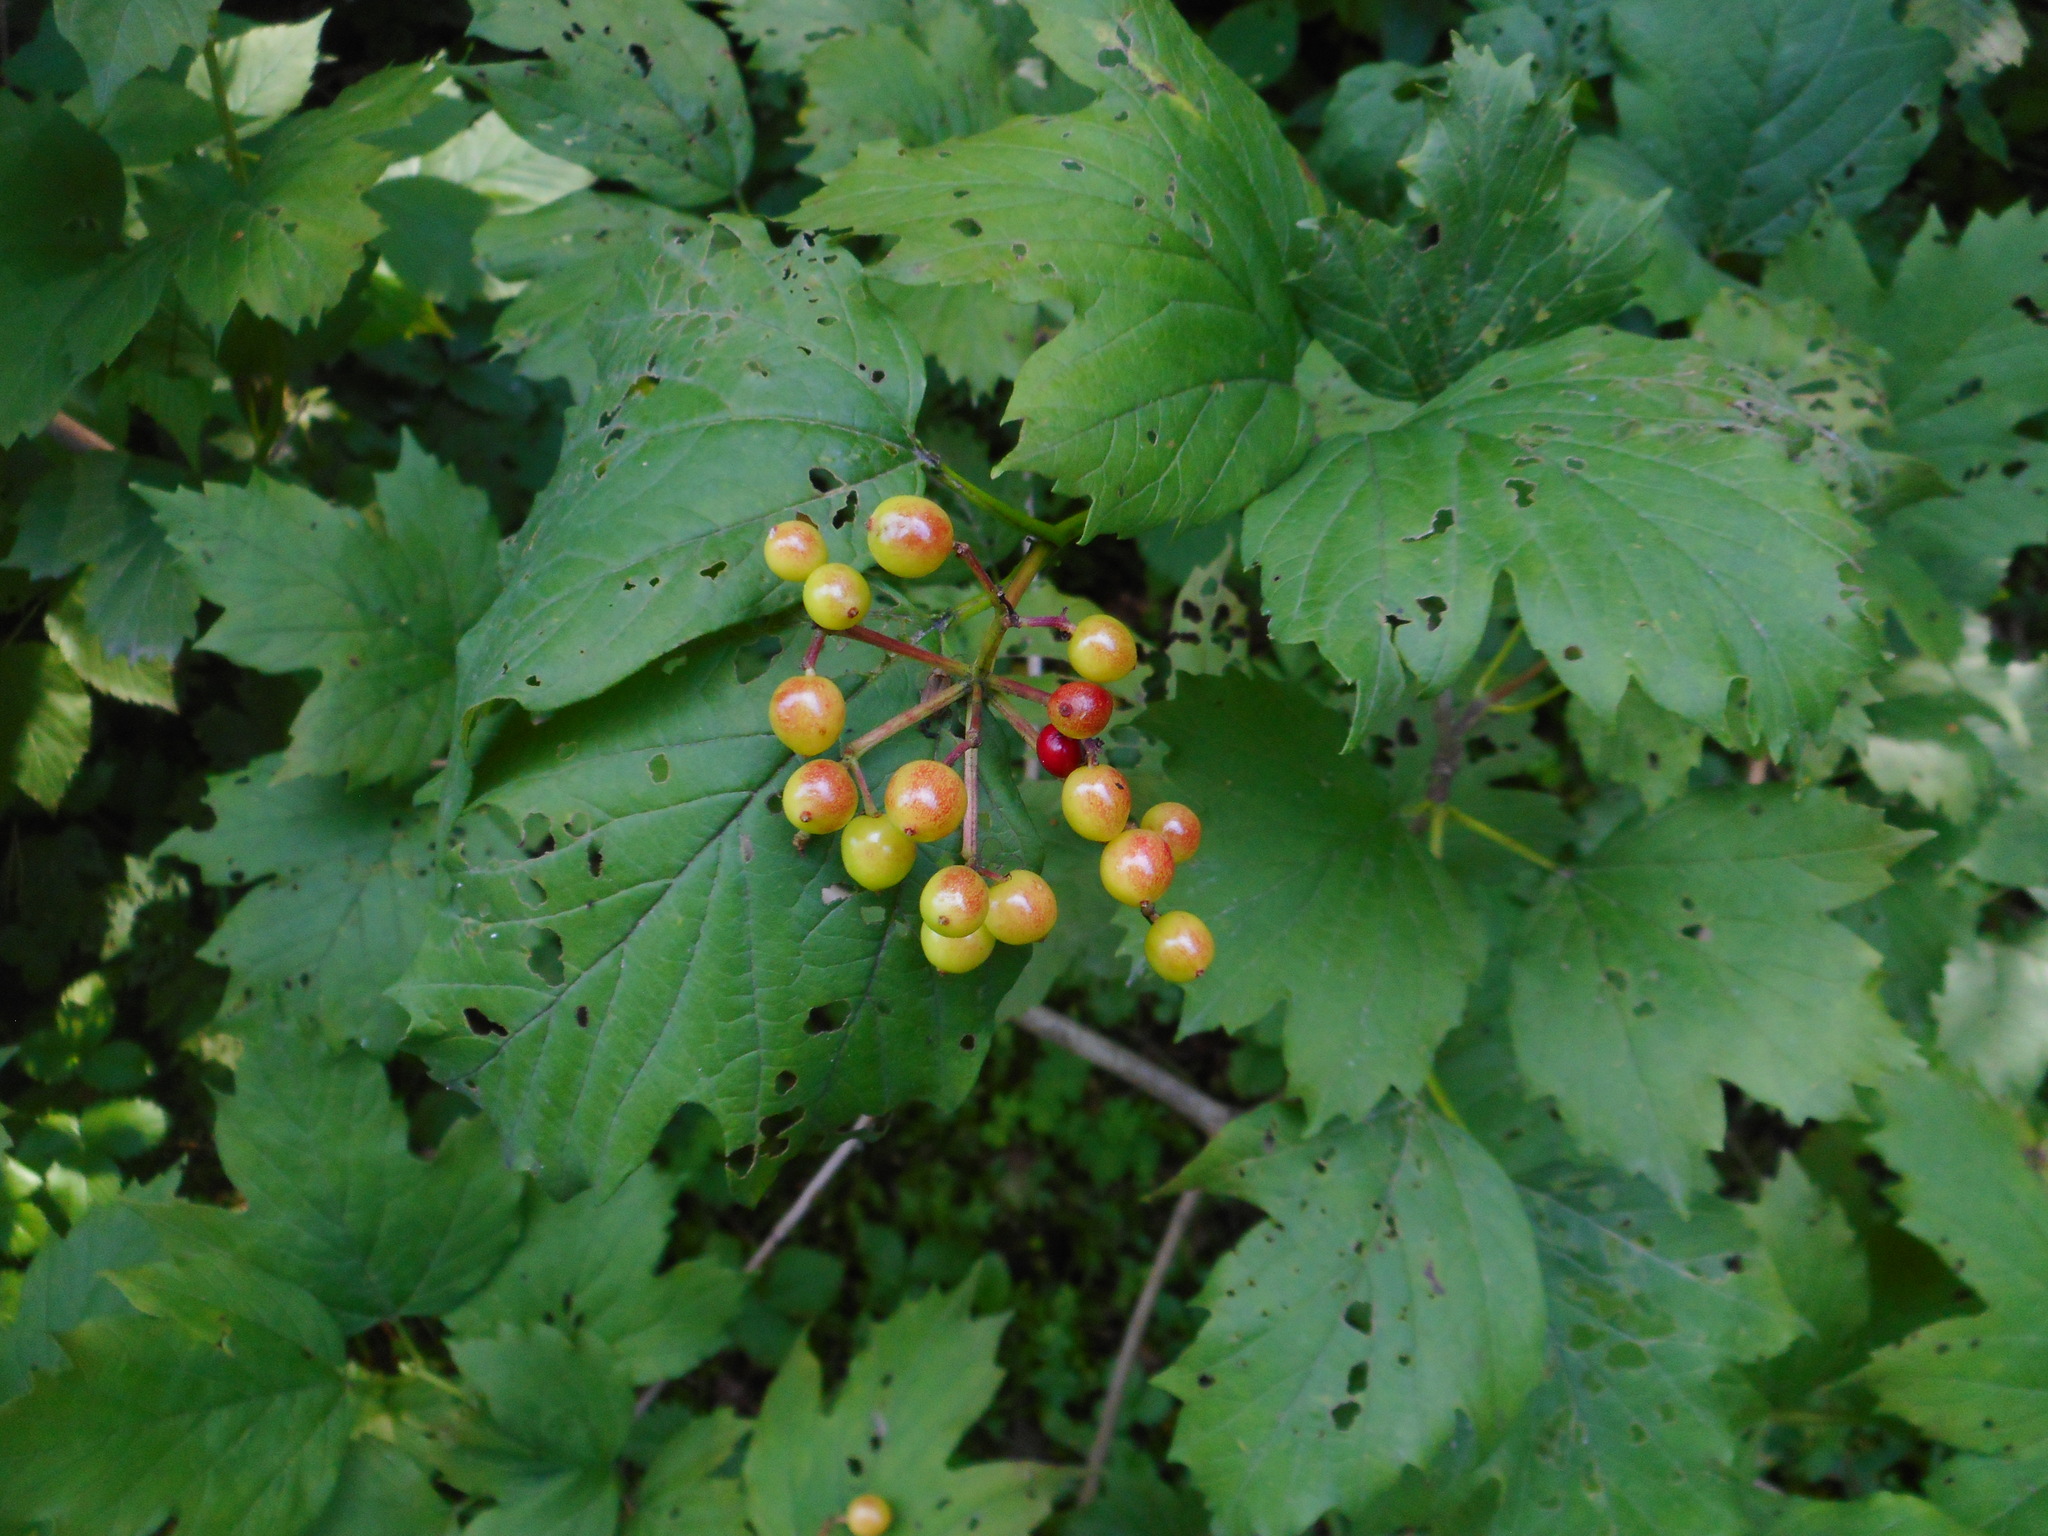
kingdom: Plantae
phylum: Tracheophyta
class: Magnoliopsida
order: Dipsacales
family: Viburnaceae
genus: Viburnum
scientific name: Viburnum opulus
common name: Guelder-rose
